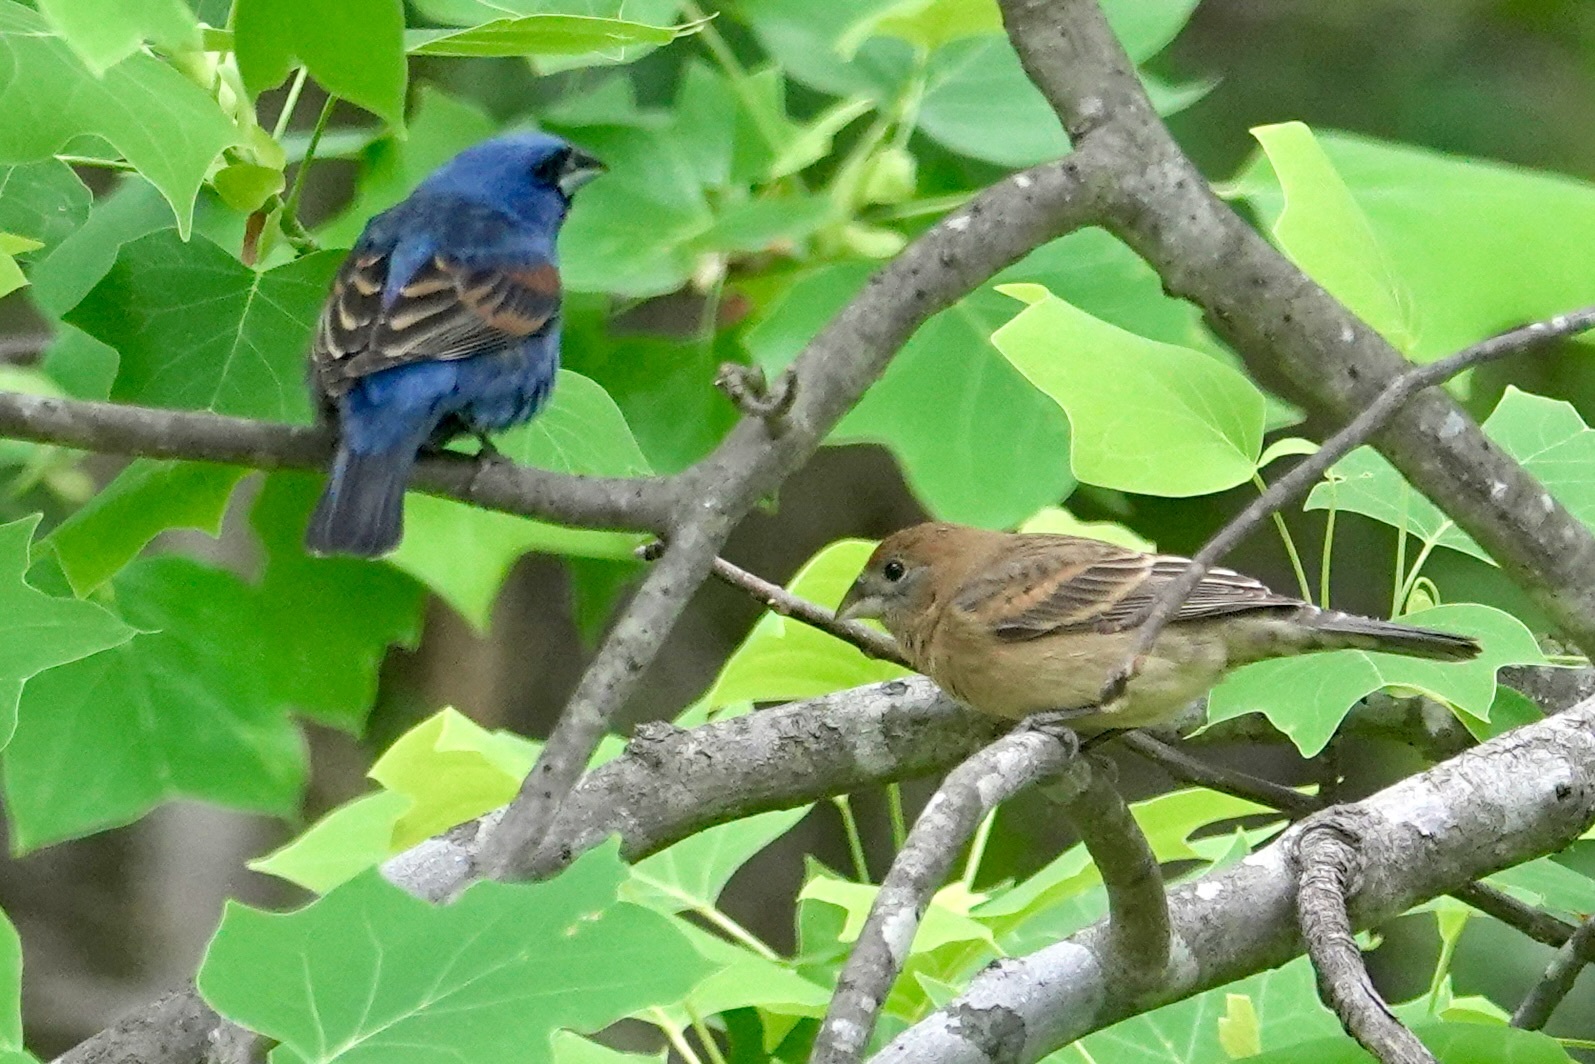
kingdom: Animalia
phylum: Chordata
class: Aves
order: Passeriformes
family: Cardinalidae
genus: Passerina
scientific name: Passerina caerulea
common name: Blue grosbeak
